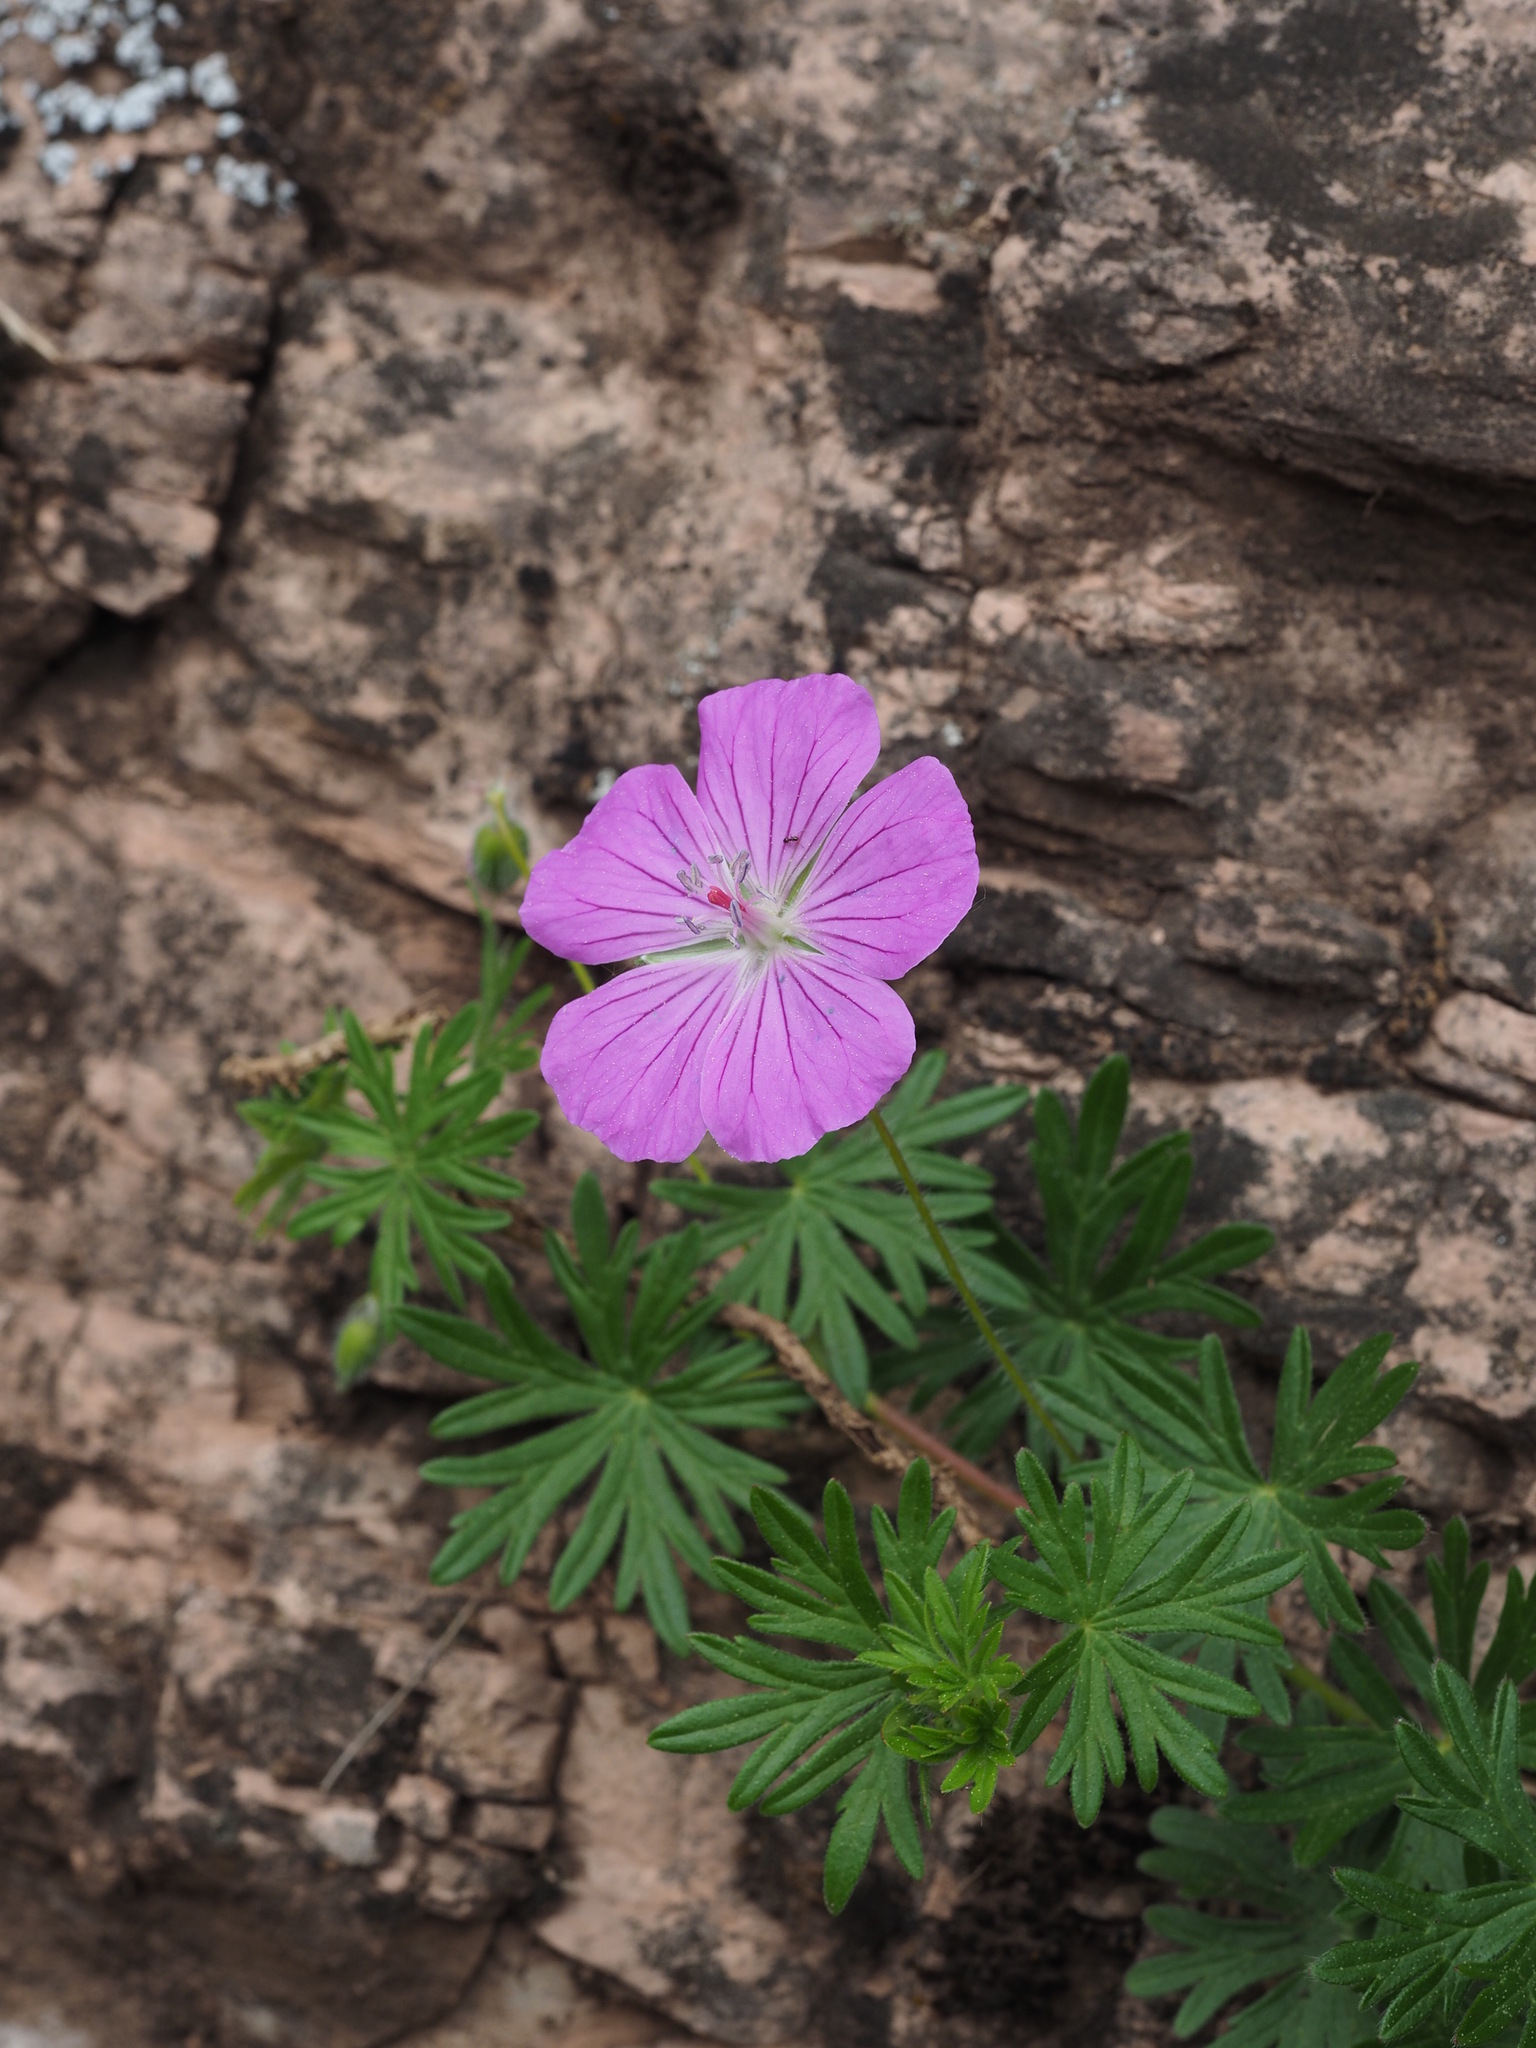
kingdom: Plantae
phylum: Tracheophyta
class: Magnoliopsida
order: Geraniales
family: Geraniaceae
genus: Geranium
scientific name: Geranium sanguineum
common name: Bloody crane's-bill
